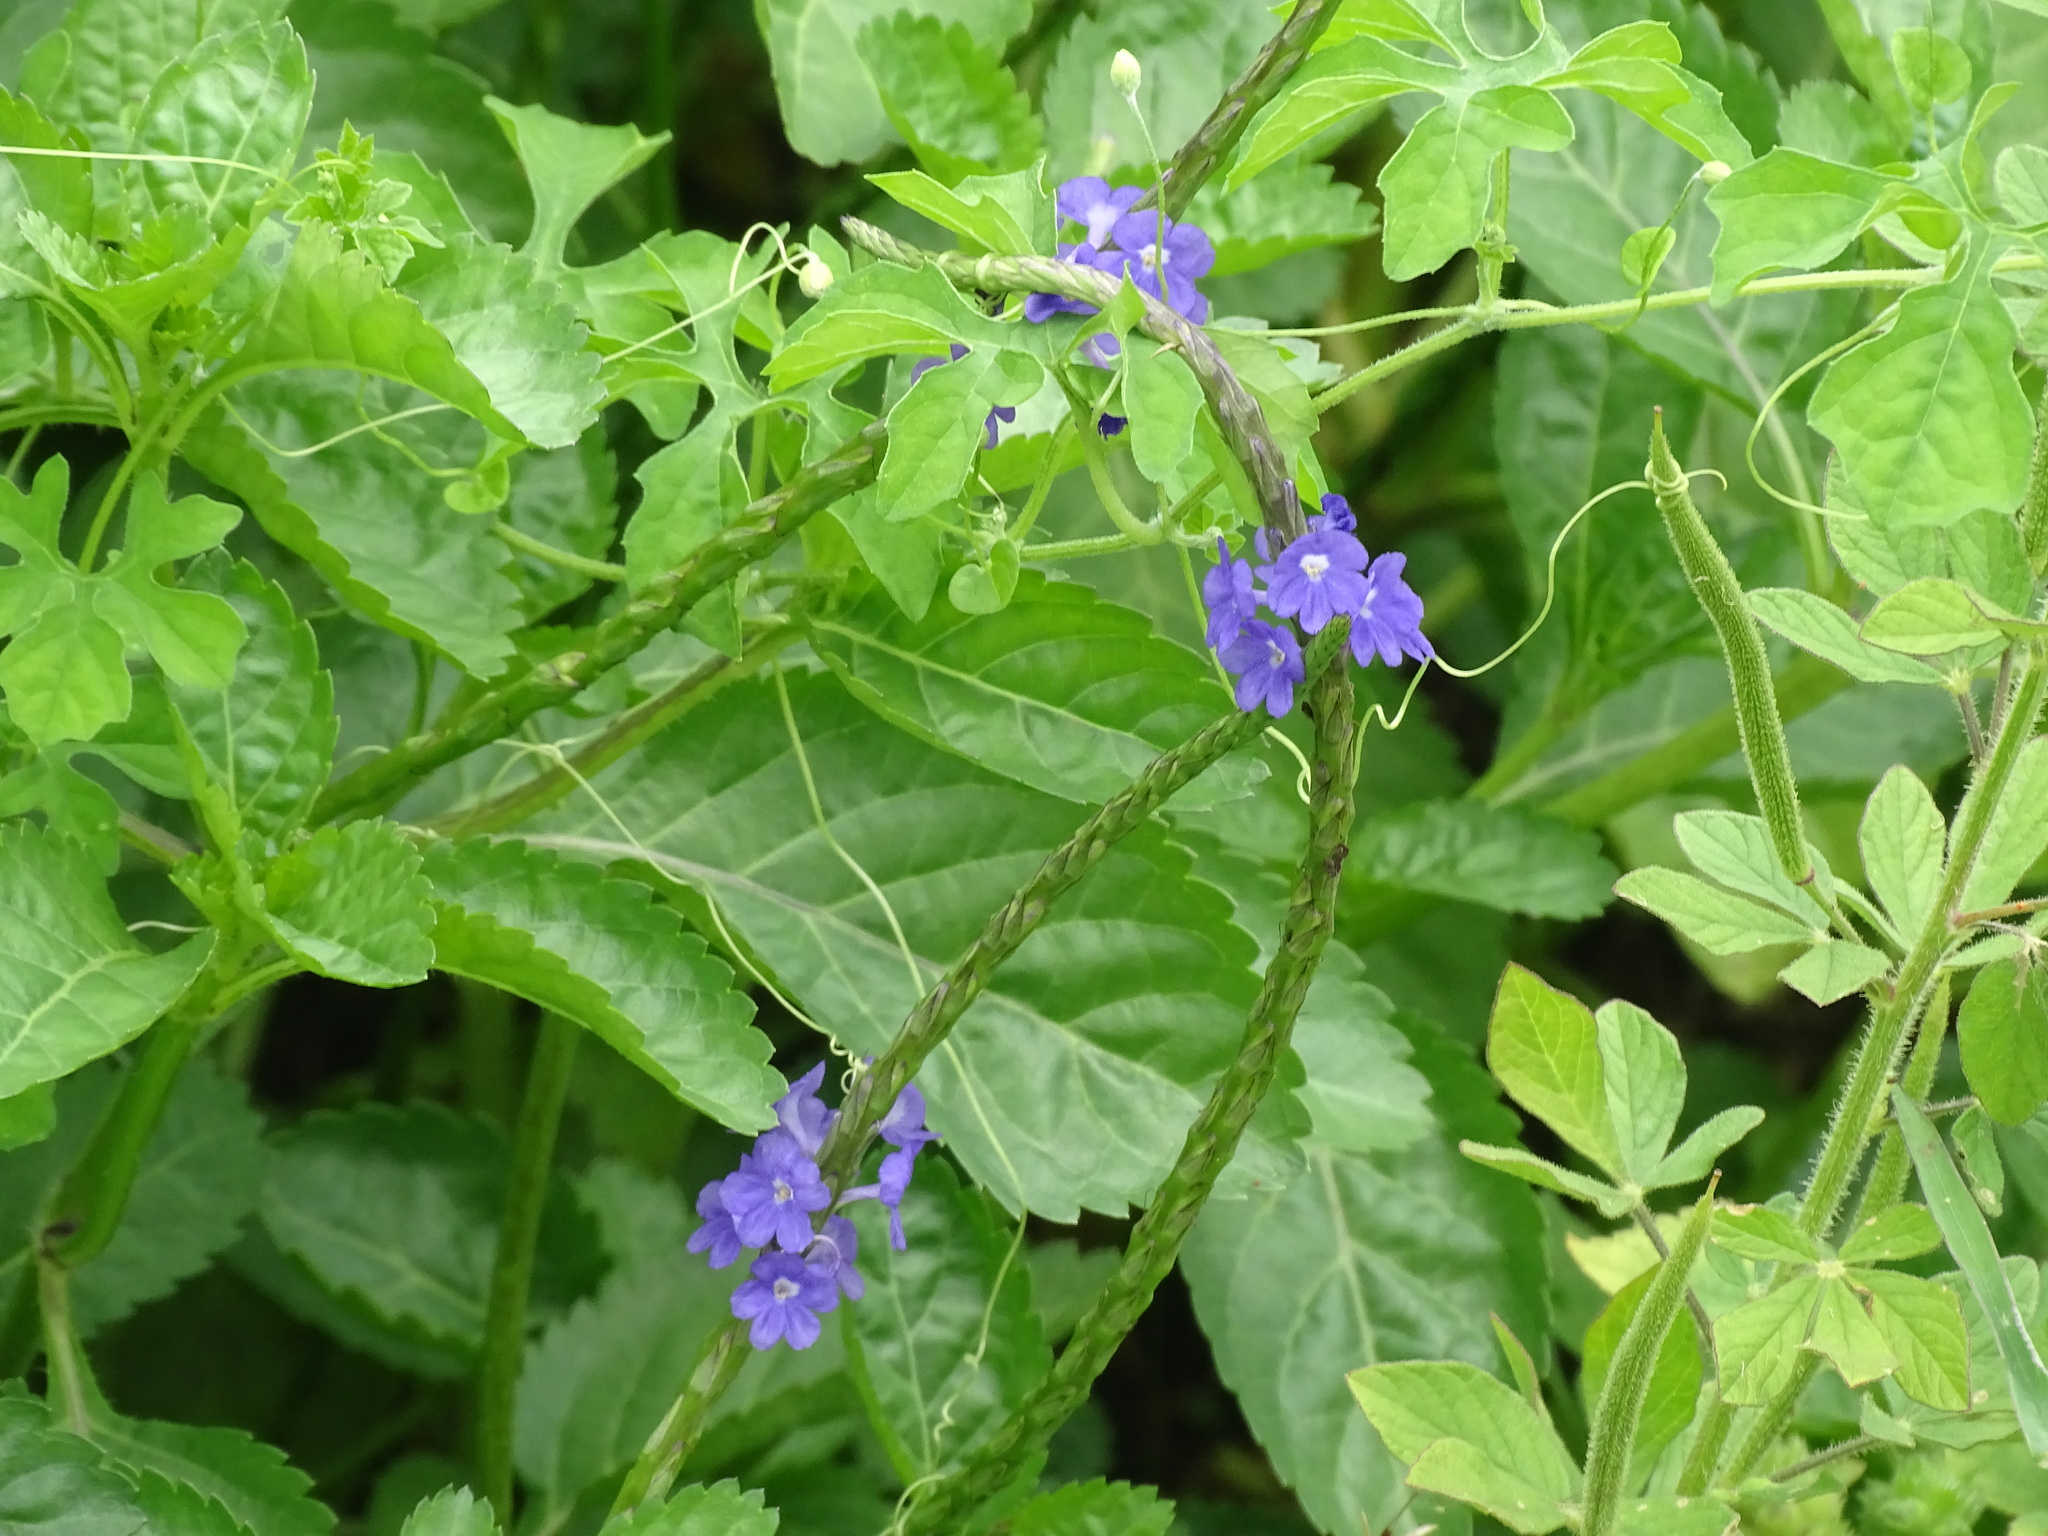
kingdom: Plantae
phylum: Tracheophyta
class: Magnoliopsida
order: Lamiales
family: Verbenaceae
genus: Stachytarpheta
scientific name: Stachytarpheta cayennensis
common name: Cayenne porterweed
